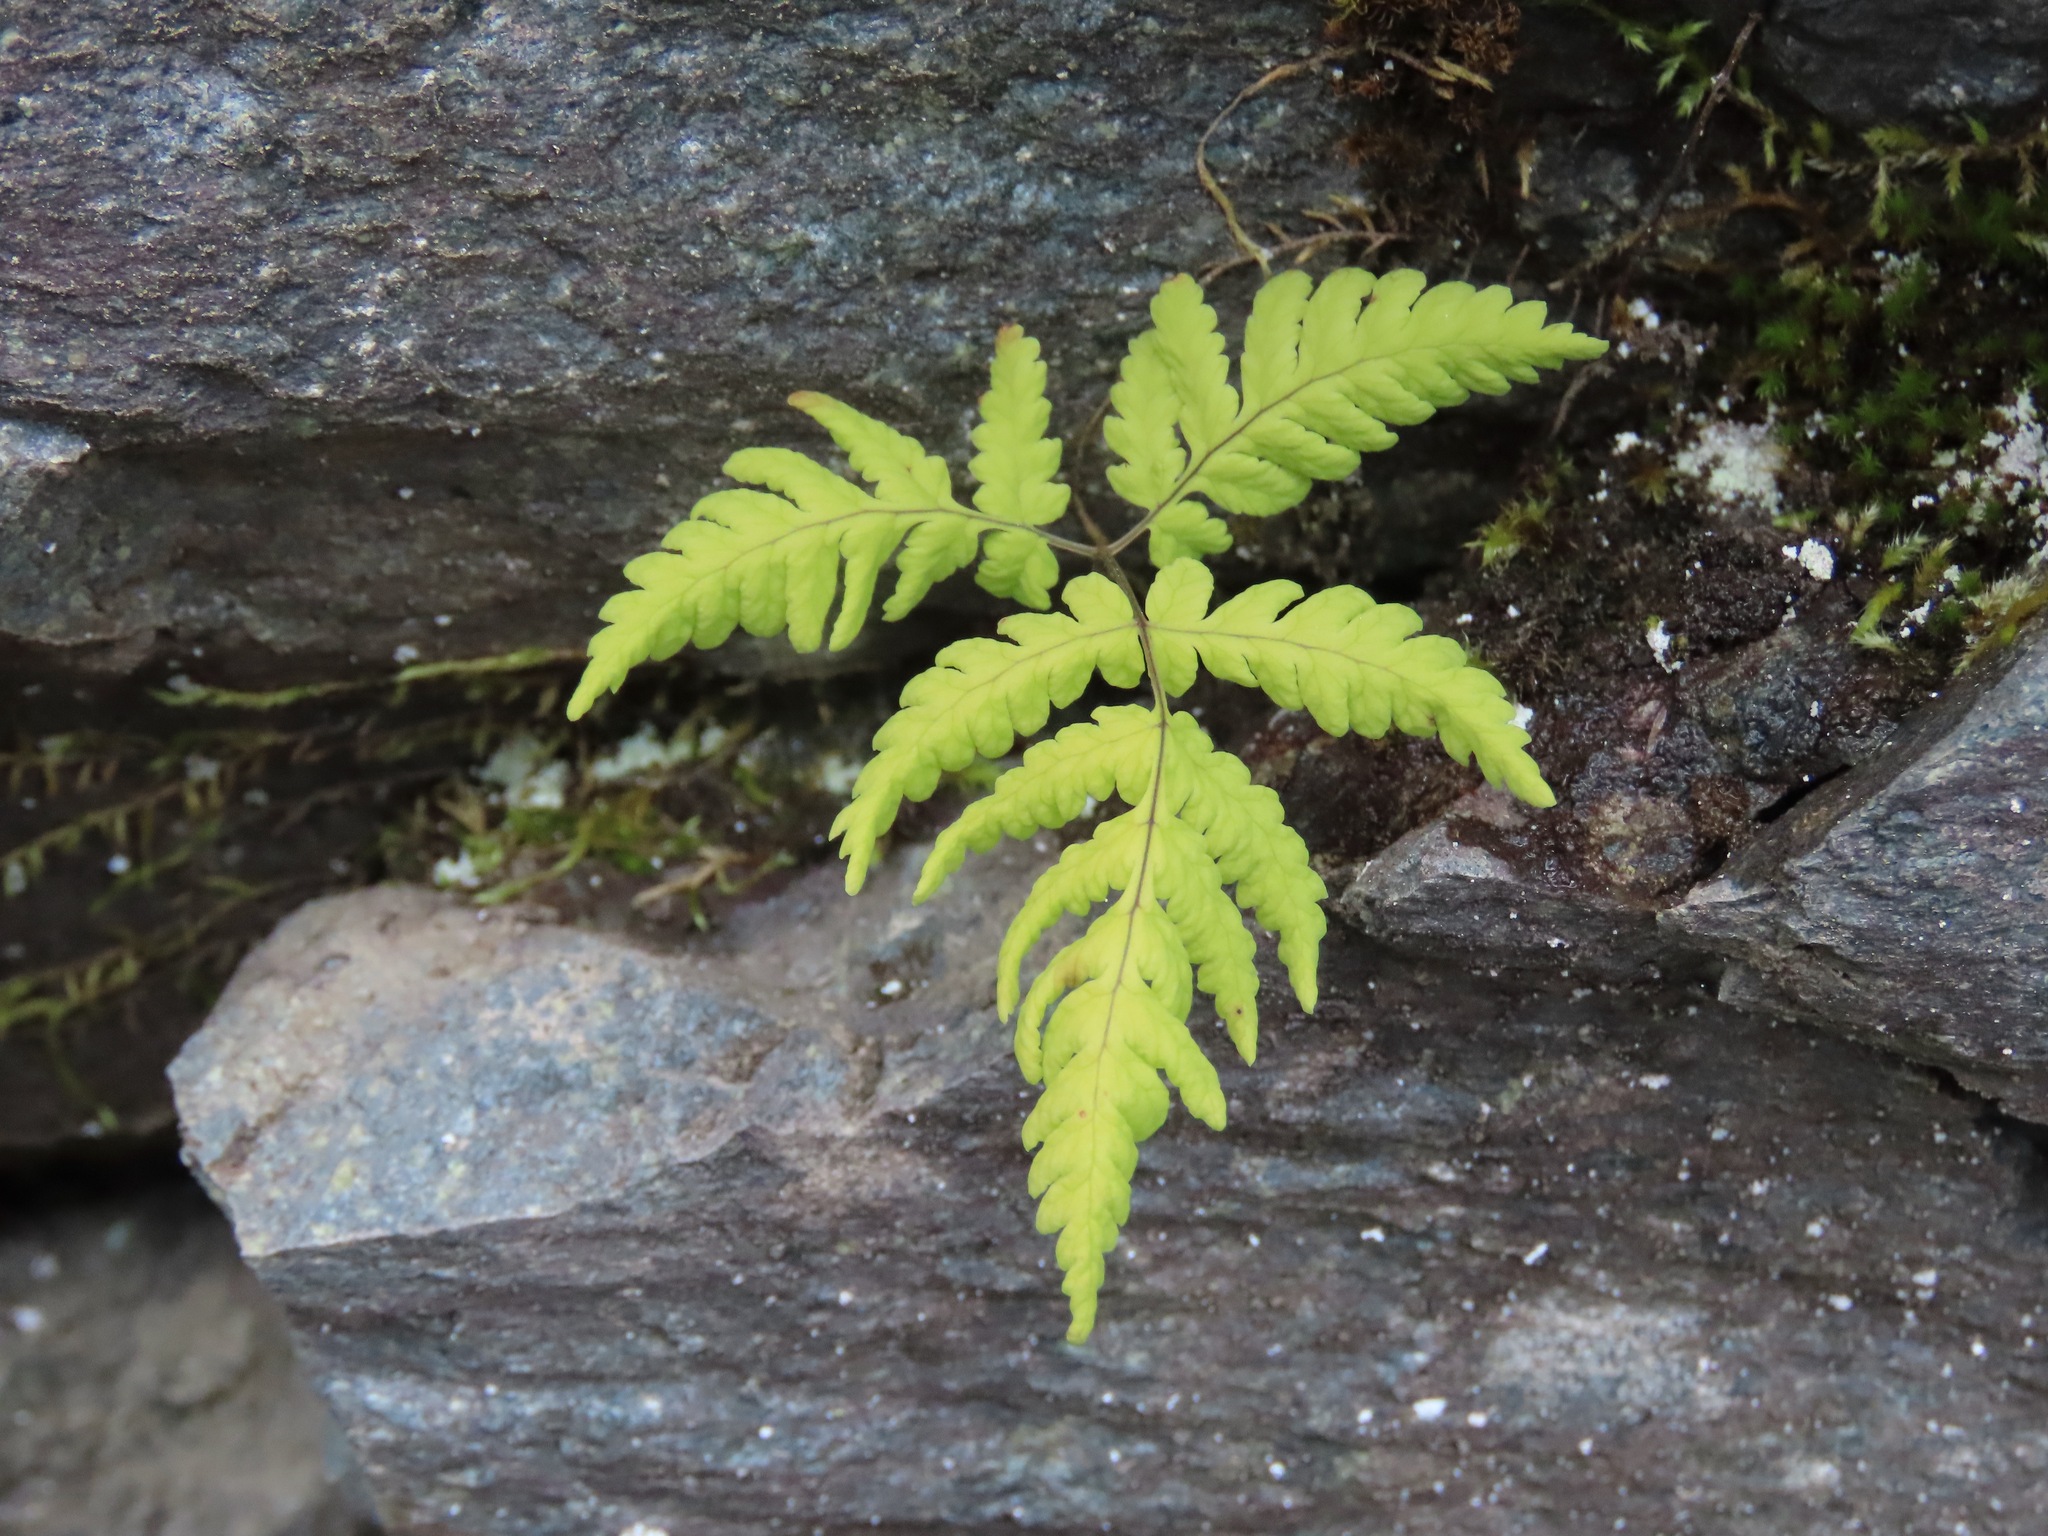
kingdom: Plantae
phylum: Tracheophyta
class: Polypodiopsida
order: Polypodiales
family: Cystopteridaceae
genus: Gymnocarpium
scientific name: Gymnocarpium dryopteris
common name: Oak fern
